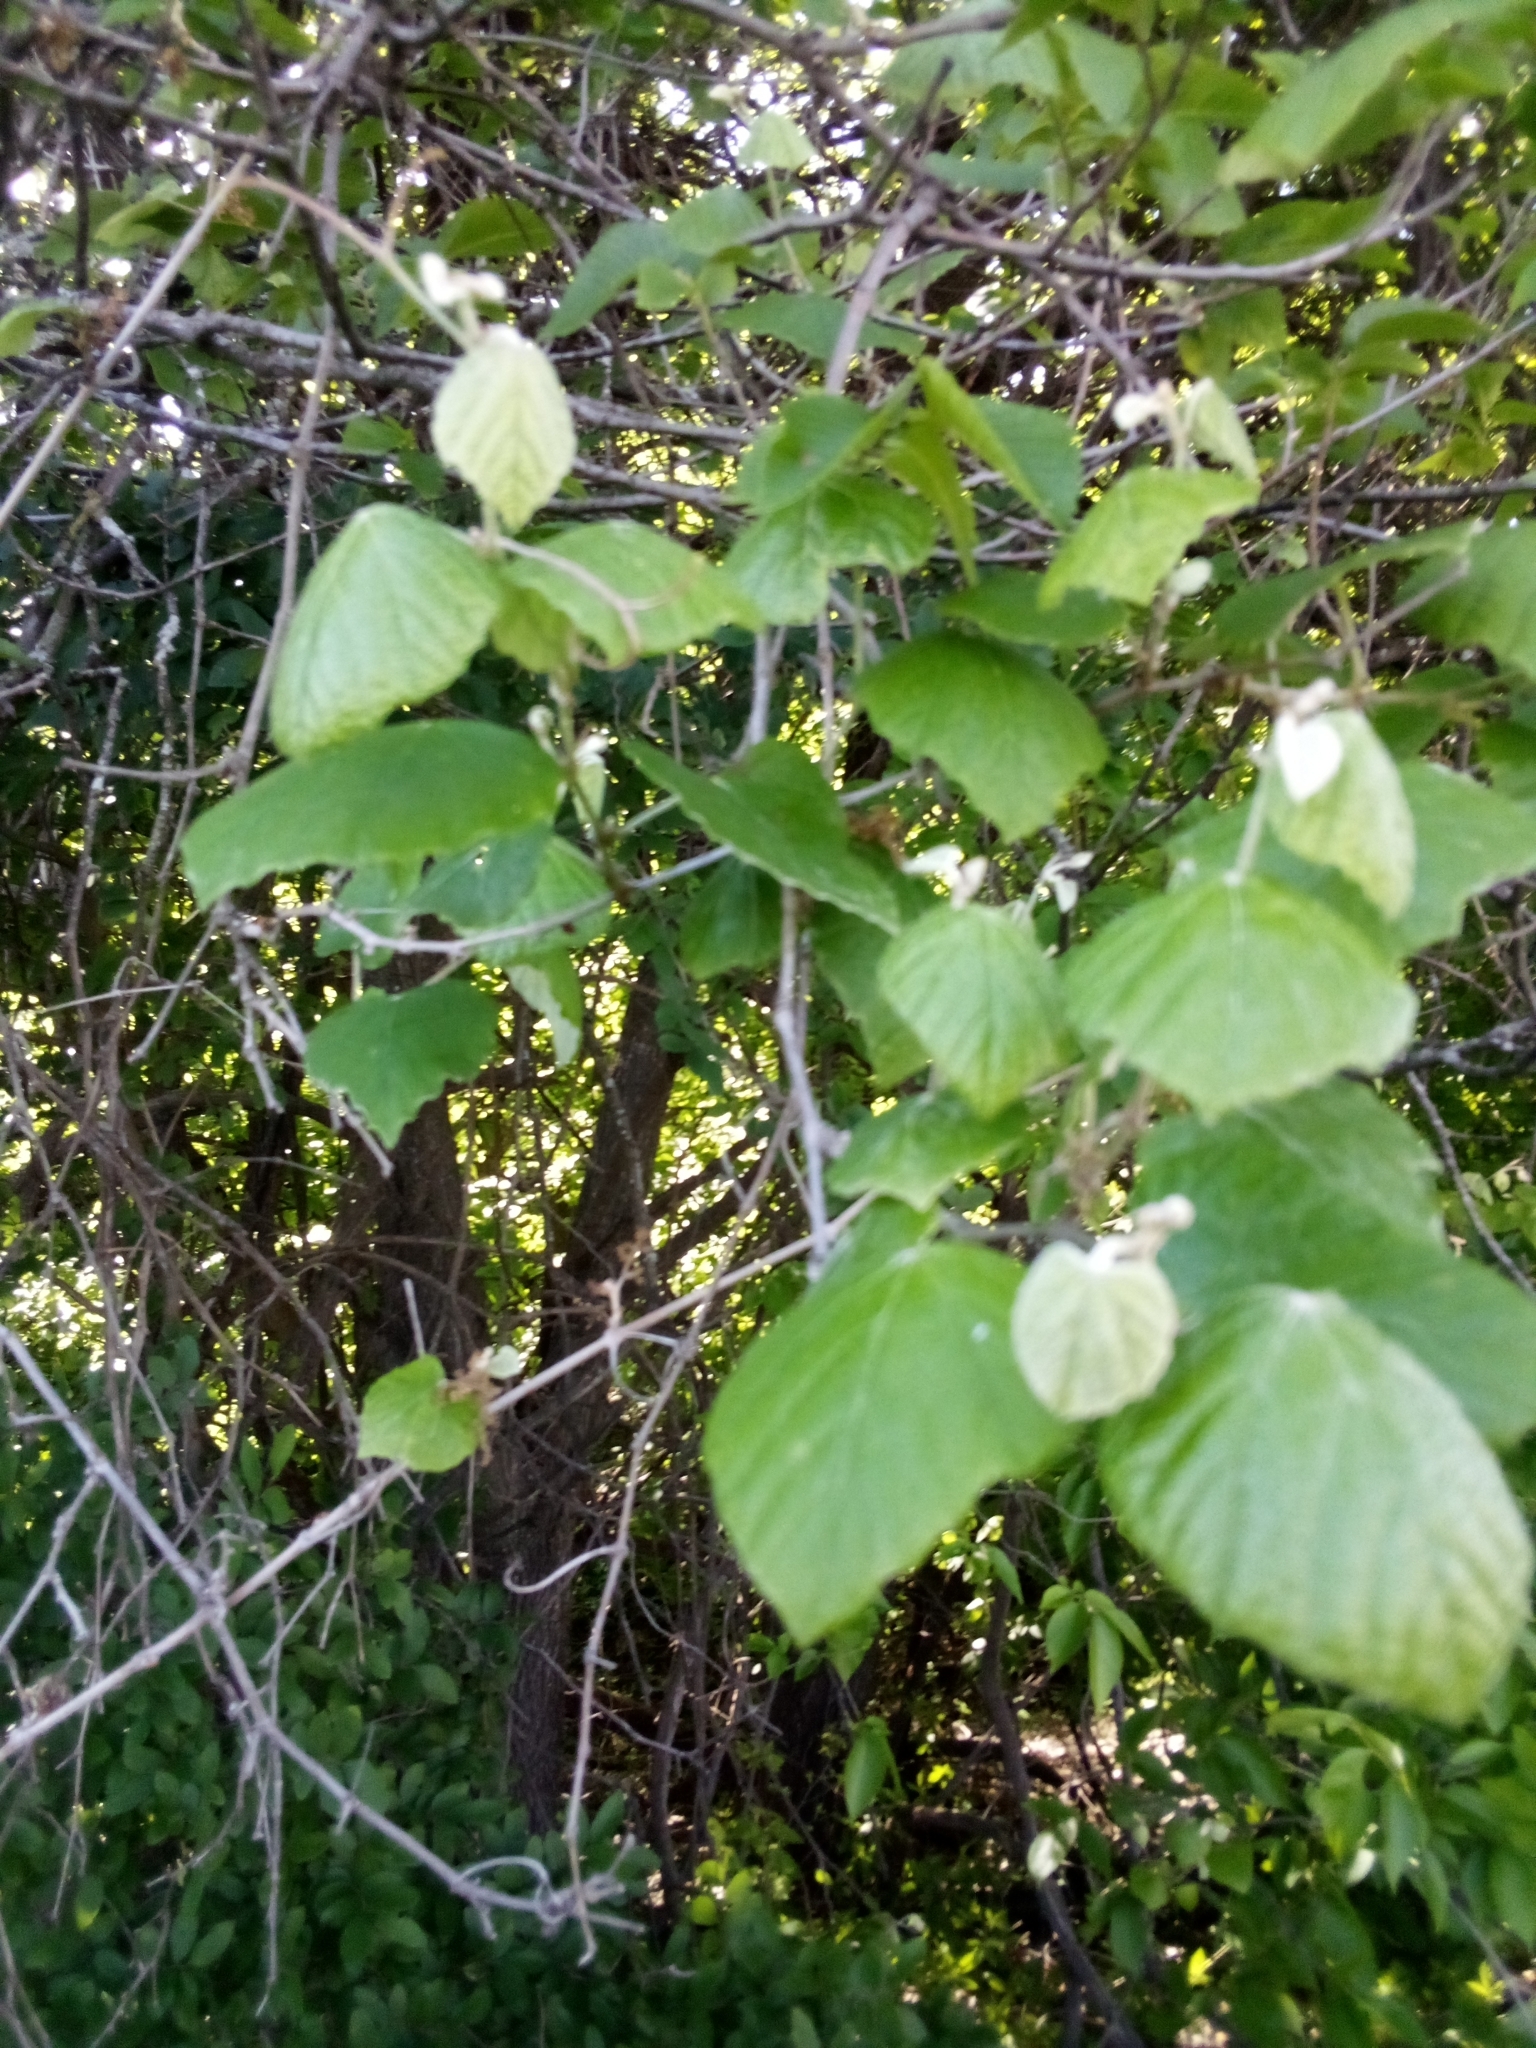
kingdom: Plantae
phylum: Tracheophyta
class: Magnoliopsida
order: Vitales
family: Vitaceae
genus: Vitis
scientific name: Vitis mustangensis
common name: Mustang grape
